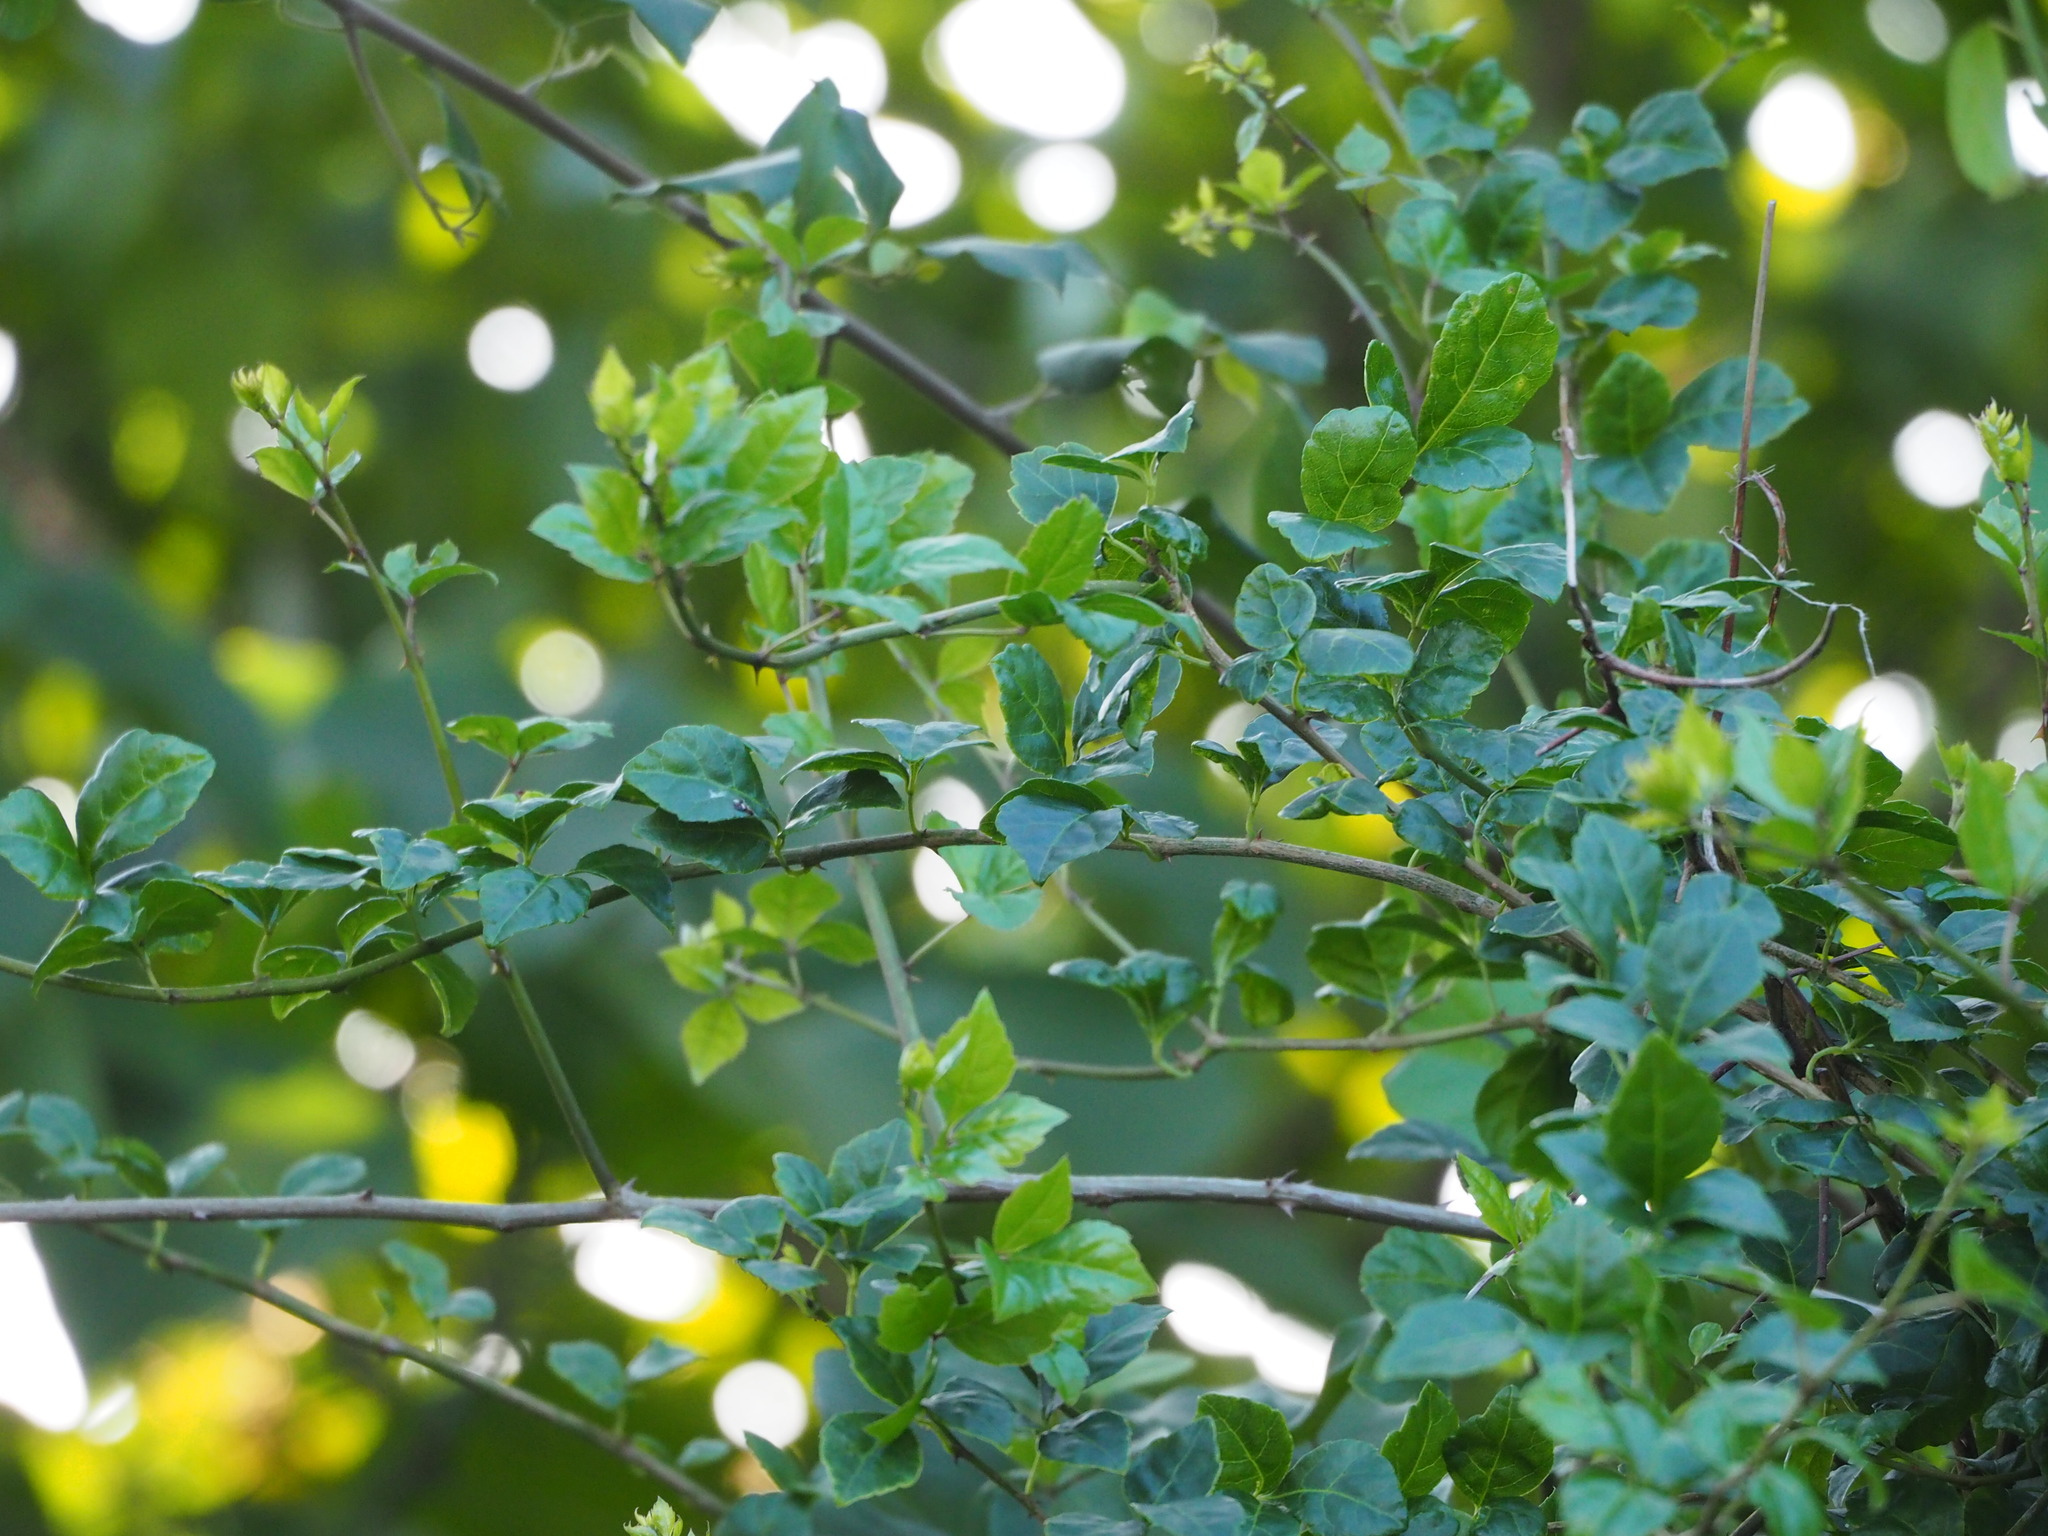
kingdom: Plantae
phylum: Tracheophyta
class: Magnoliopsida
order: Apiales
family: Araliaceae
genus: Eleutherococcus
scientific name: Eleutherococcus trifoliatus
